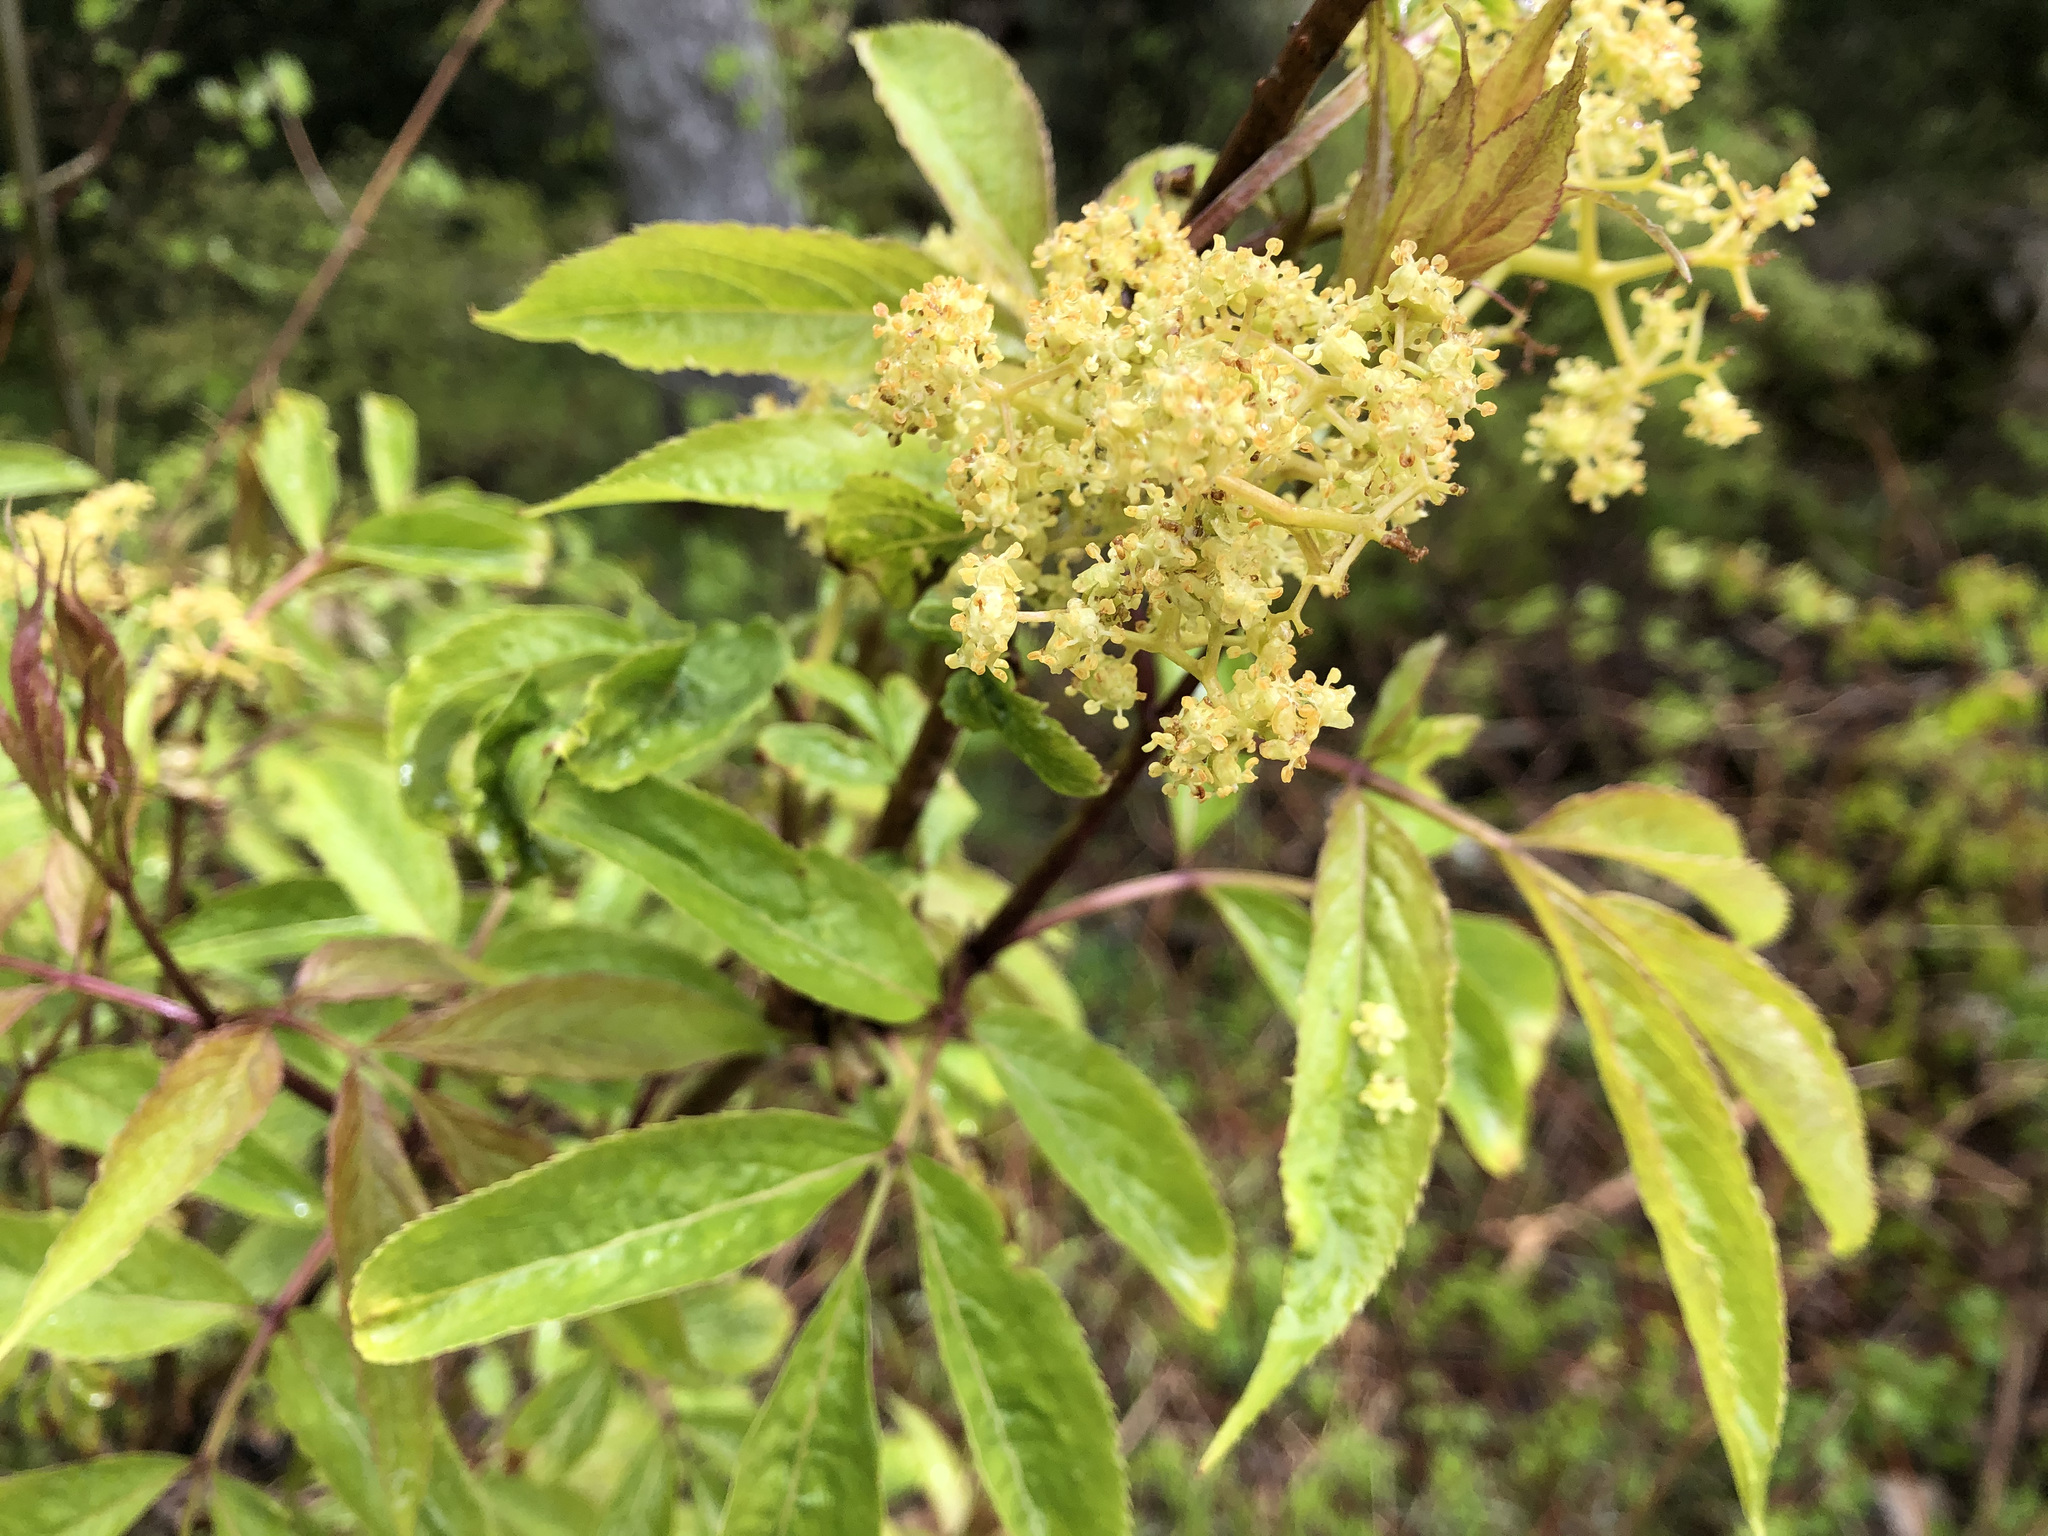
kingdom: Plantae
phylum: Tracheophyta
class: Magnoliopsida
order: Dipsacales
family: Viburnaceae
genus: Sambucus
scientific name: Sambucus racemosa
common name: Red-berried elder
